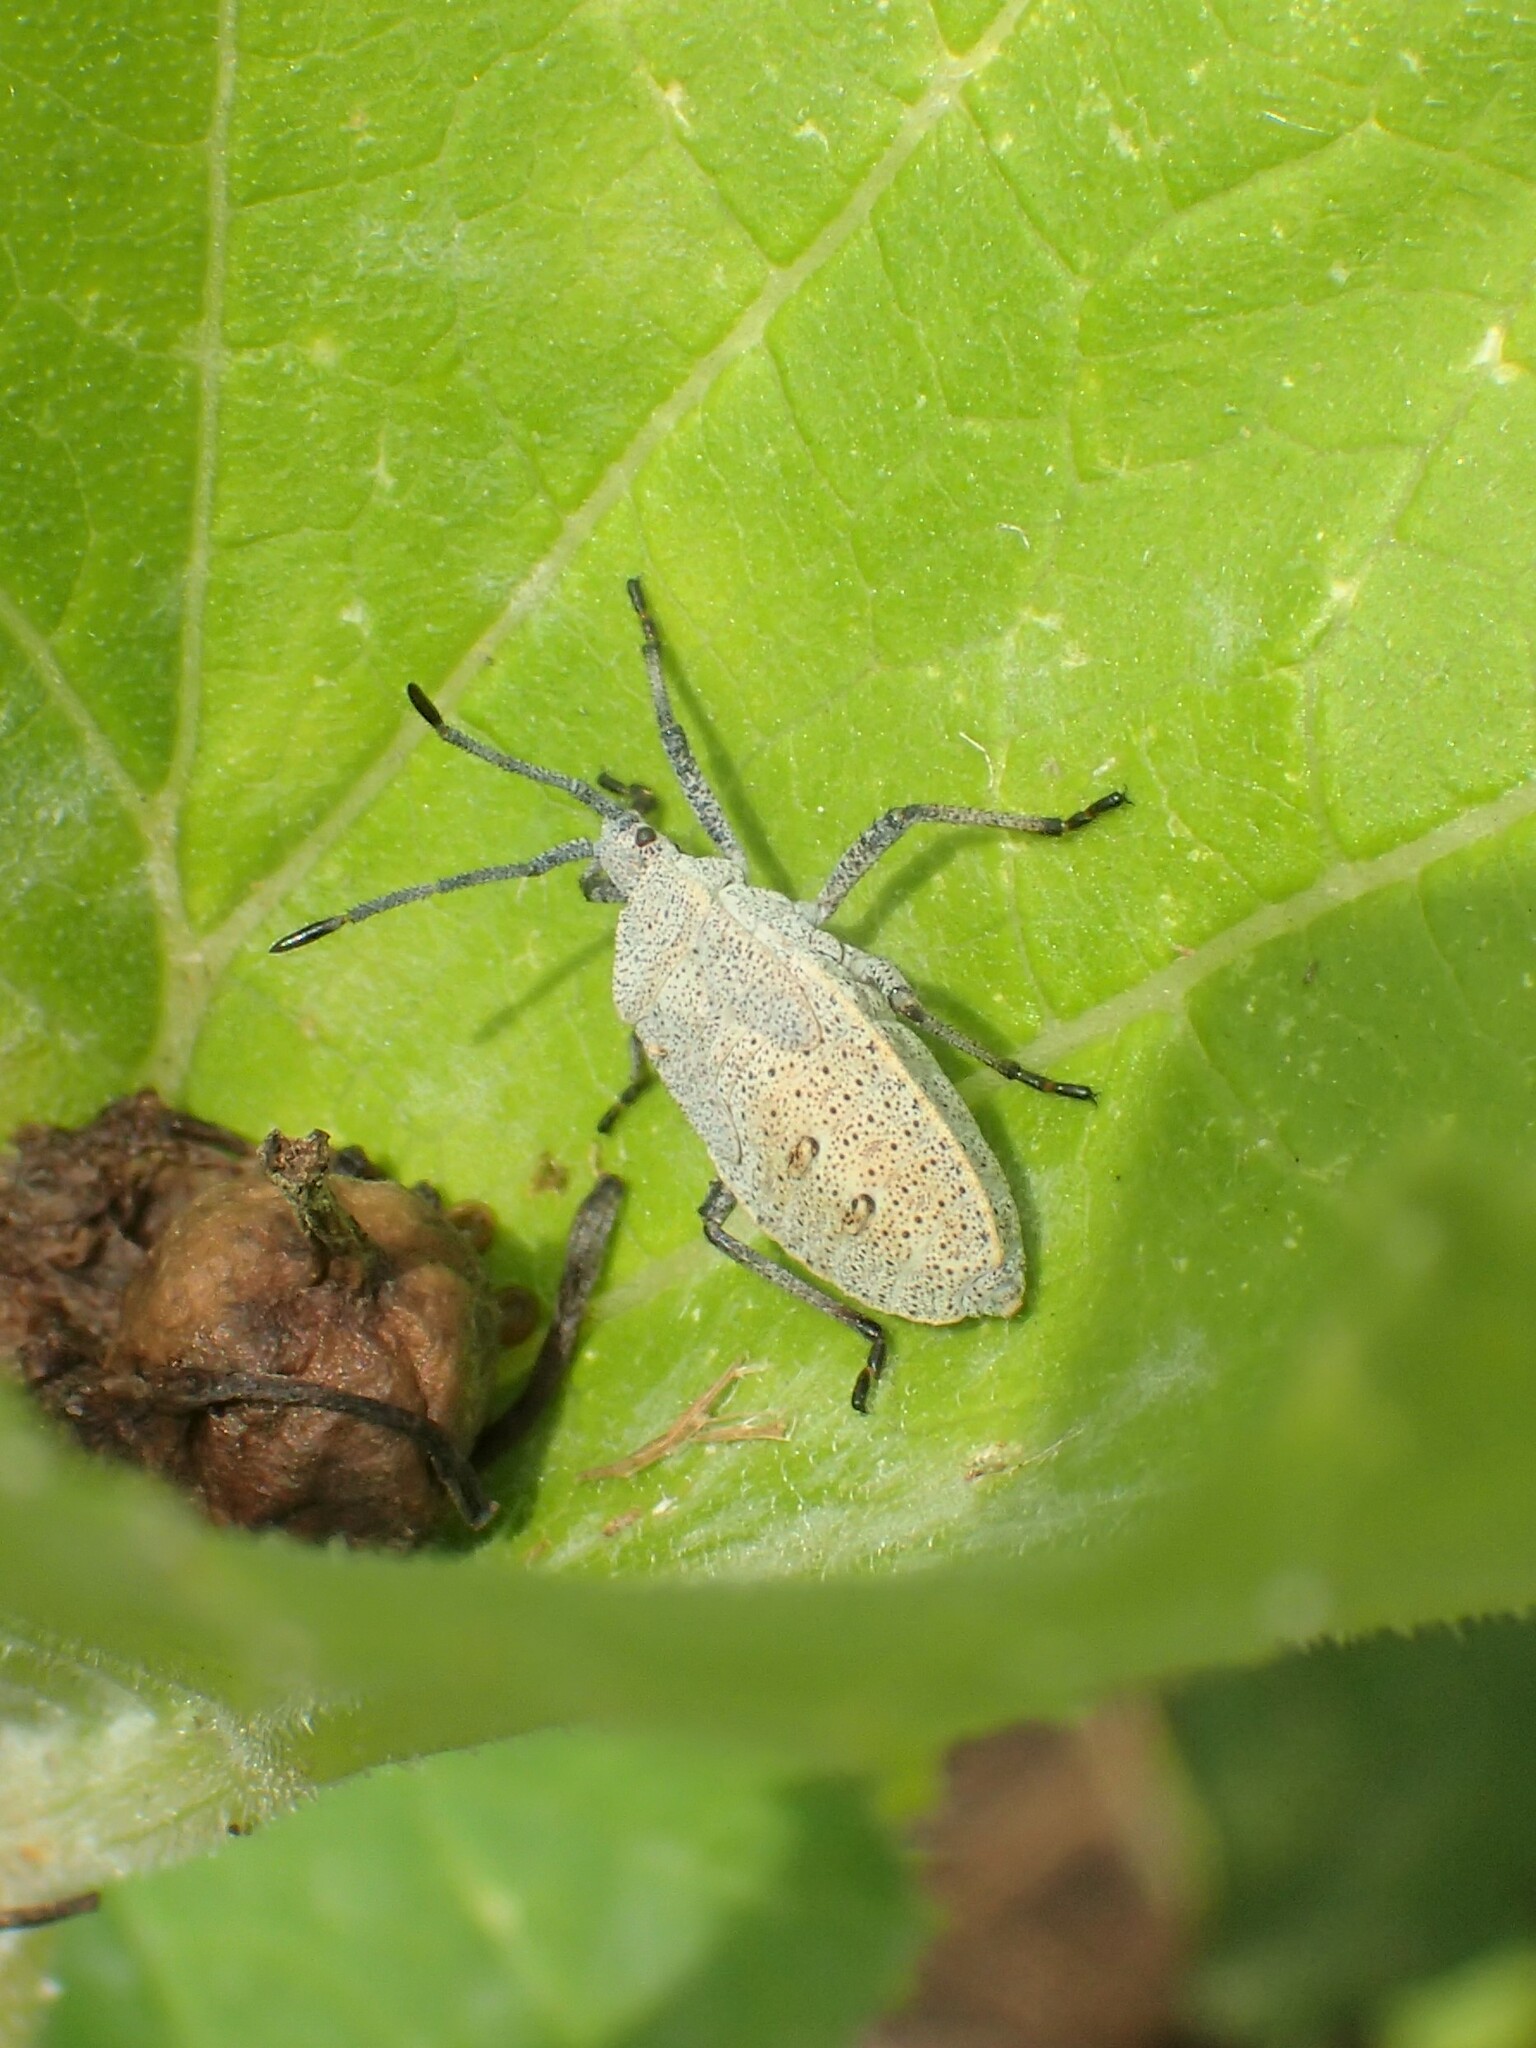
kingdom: Animalia
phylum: Arthropoda
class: Insecta
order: Hemiptera
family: Coreidae
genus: Anasa
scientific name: Anasa tristis
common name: Squash bug
